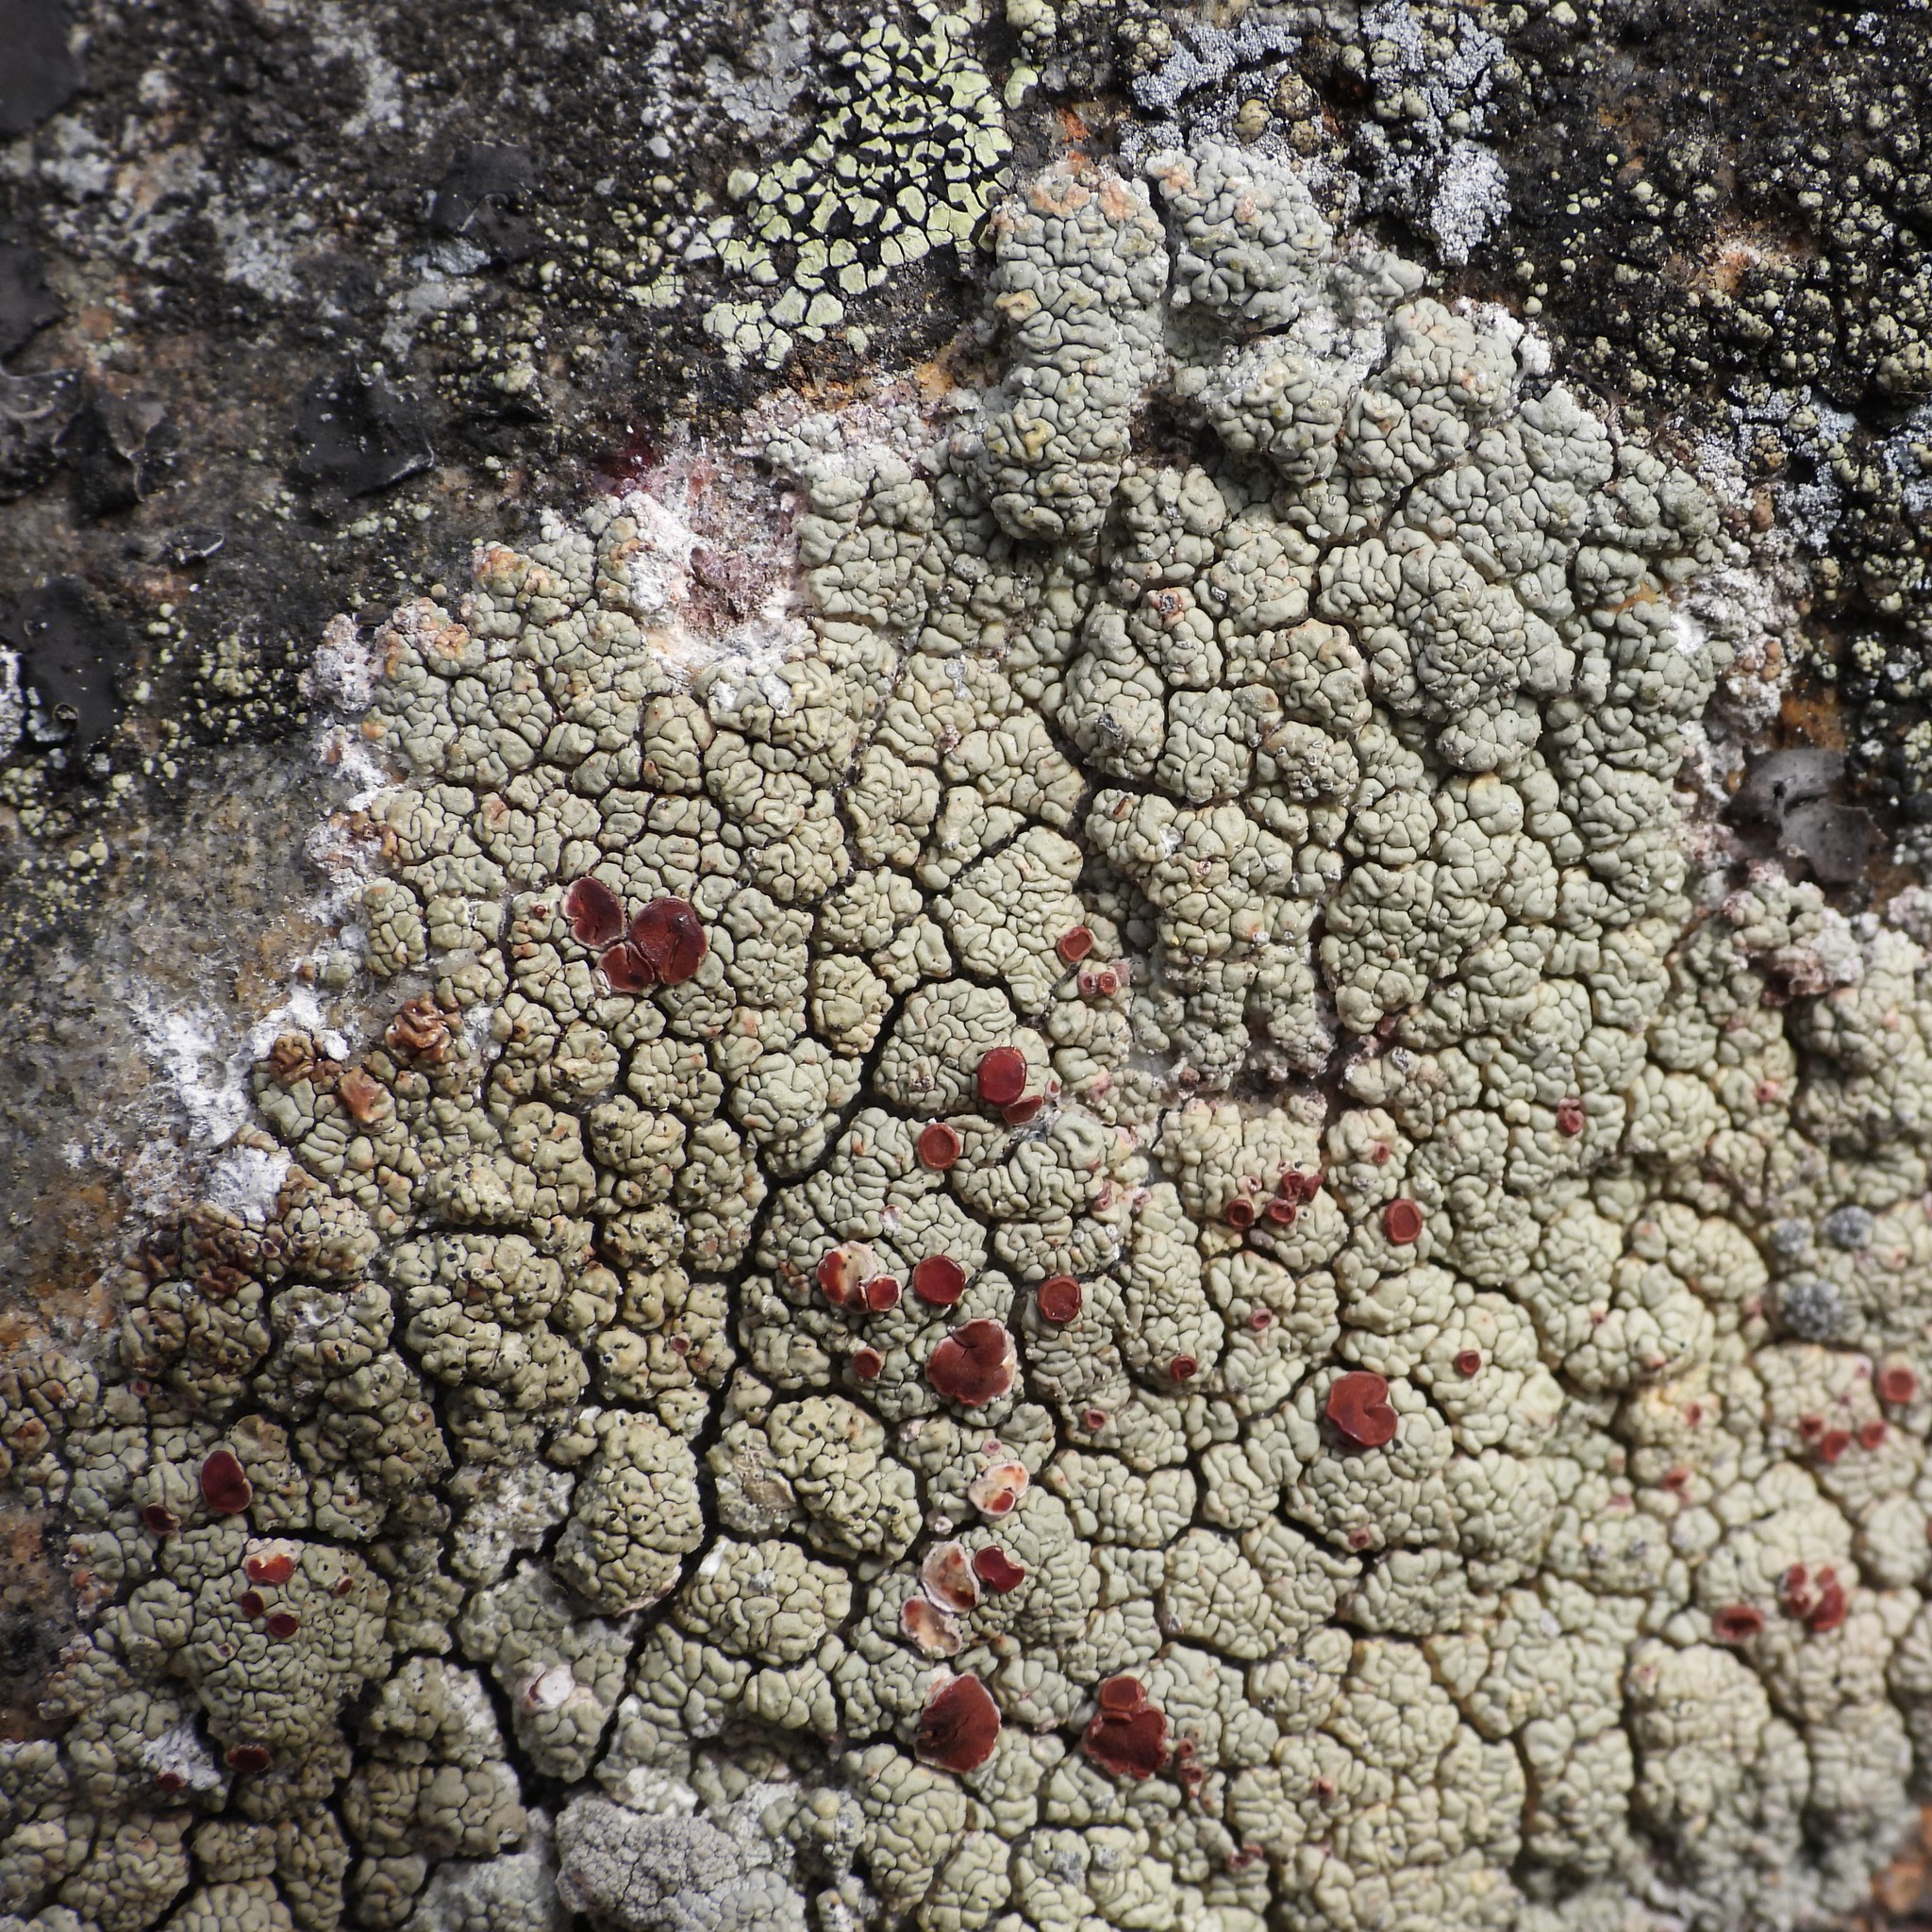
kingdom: Fungi
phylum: Ascomycota
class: Lecanoromycetes
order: Umbilicariales
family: Ophioparmaceae
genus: Ophioparma
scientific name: Ophioparma ventosa
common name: Blood-spot
